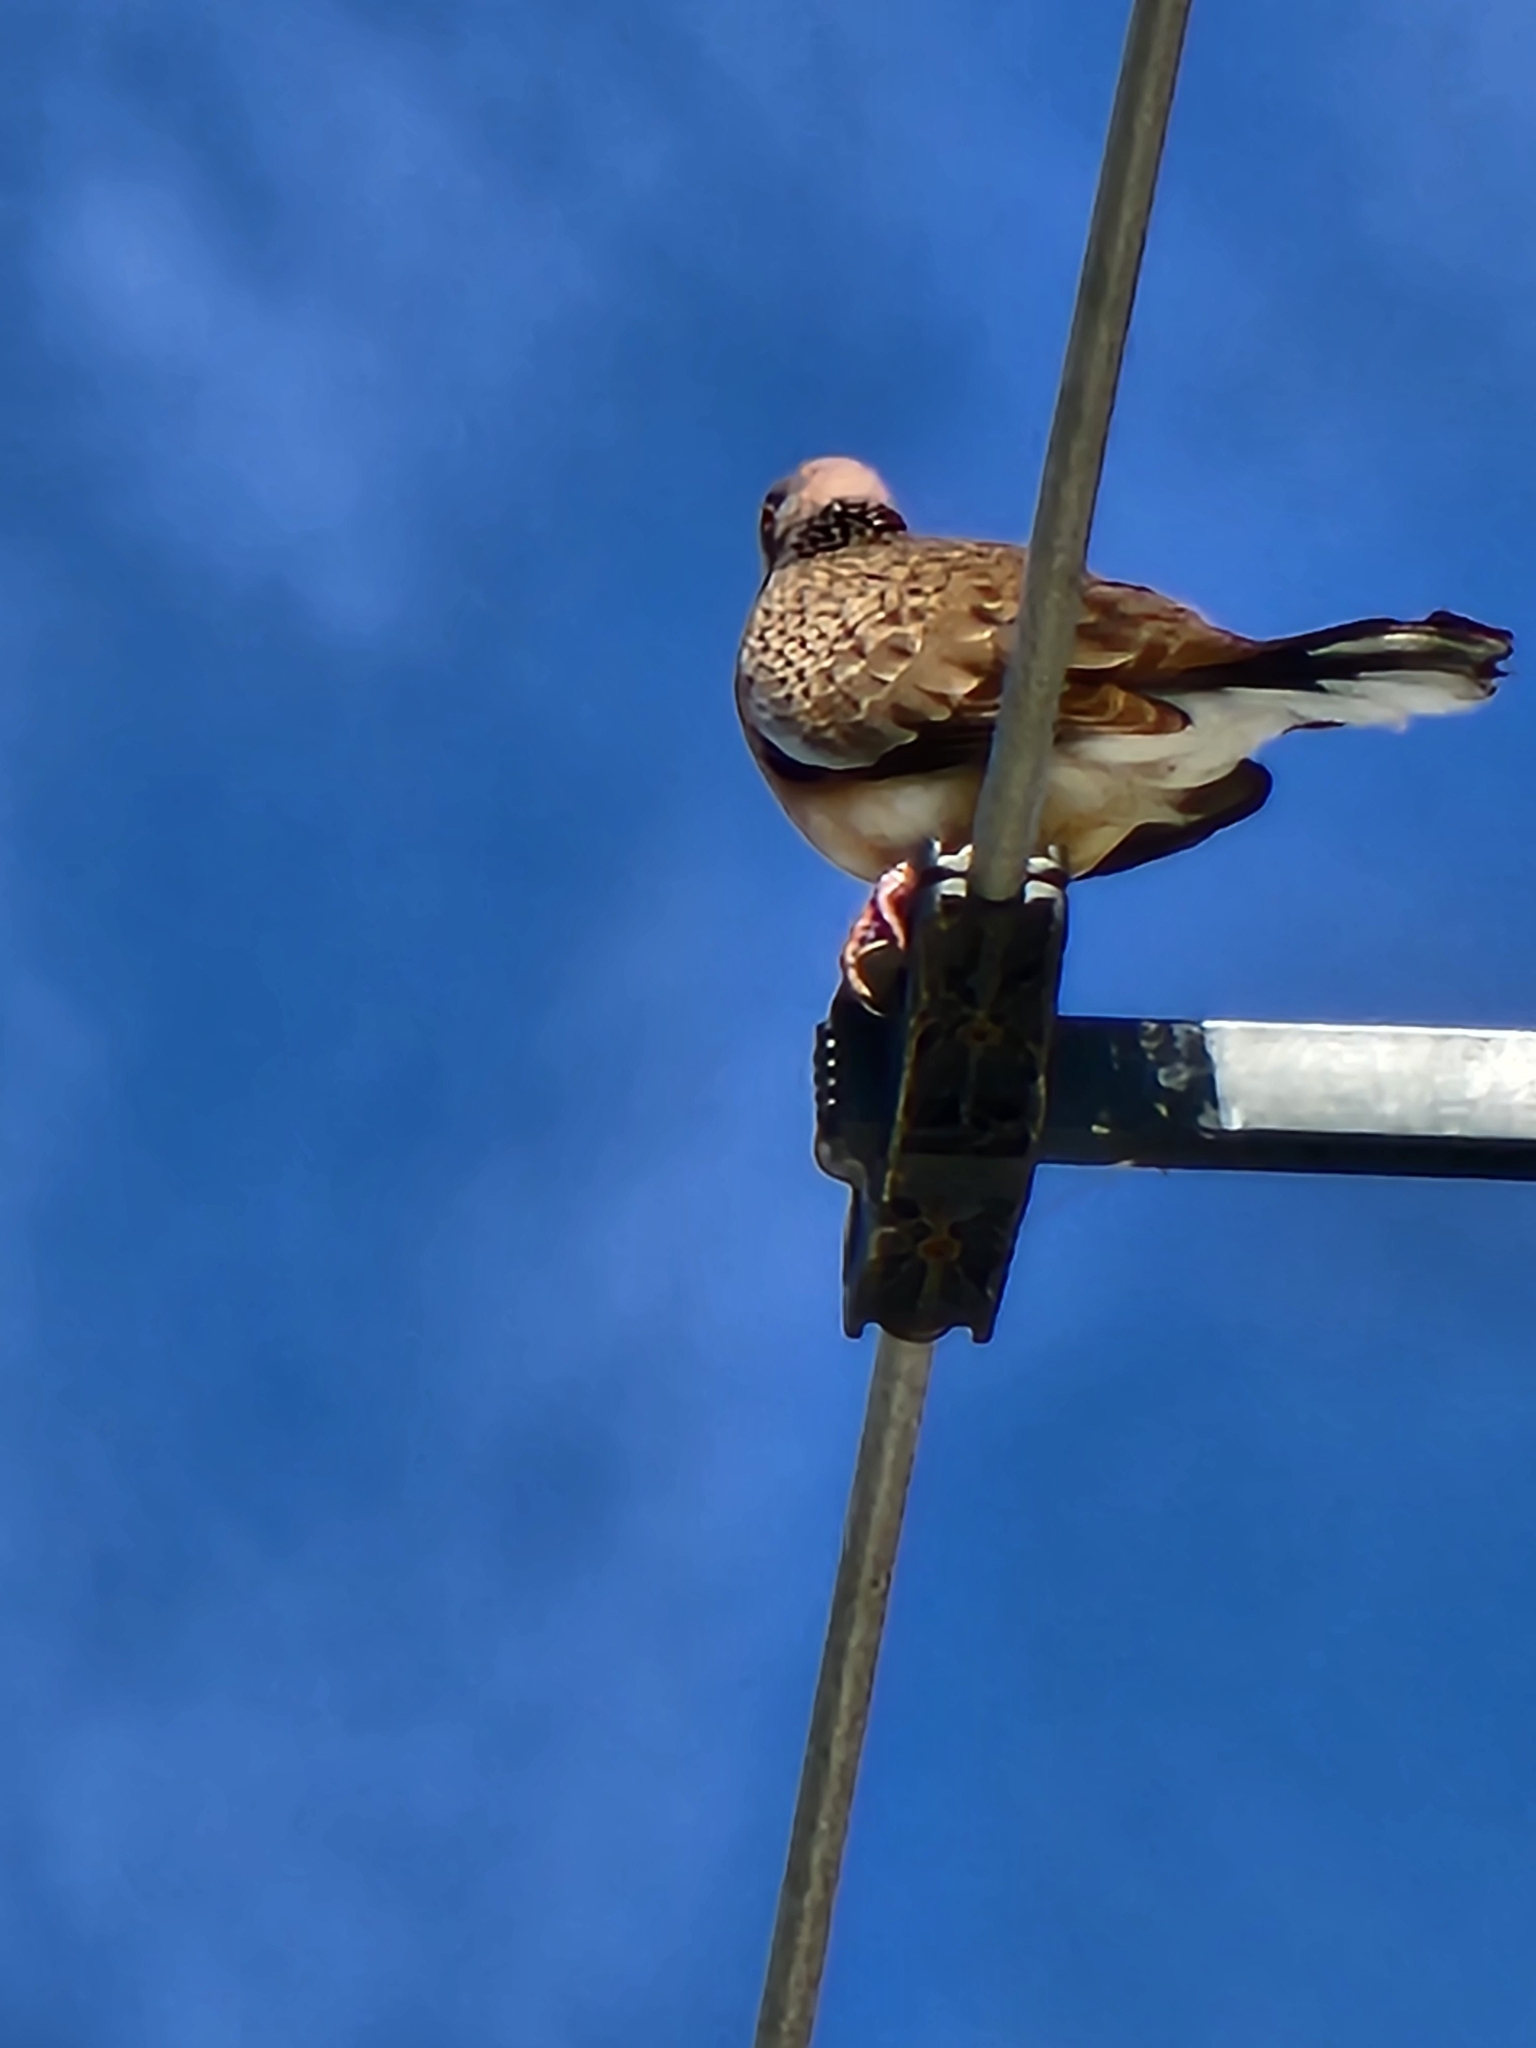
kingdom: Animalia
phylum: Chordata
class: Aves
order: Columbiformes
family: Columbidae
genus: Spilopelia
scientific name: Spilopelia chinensis
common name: Spotted dove
